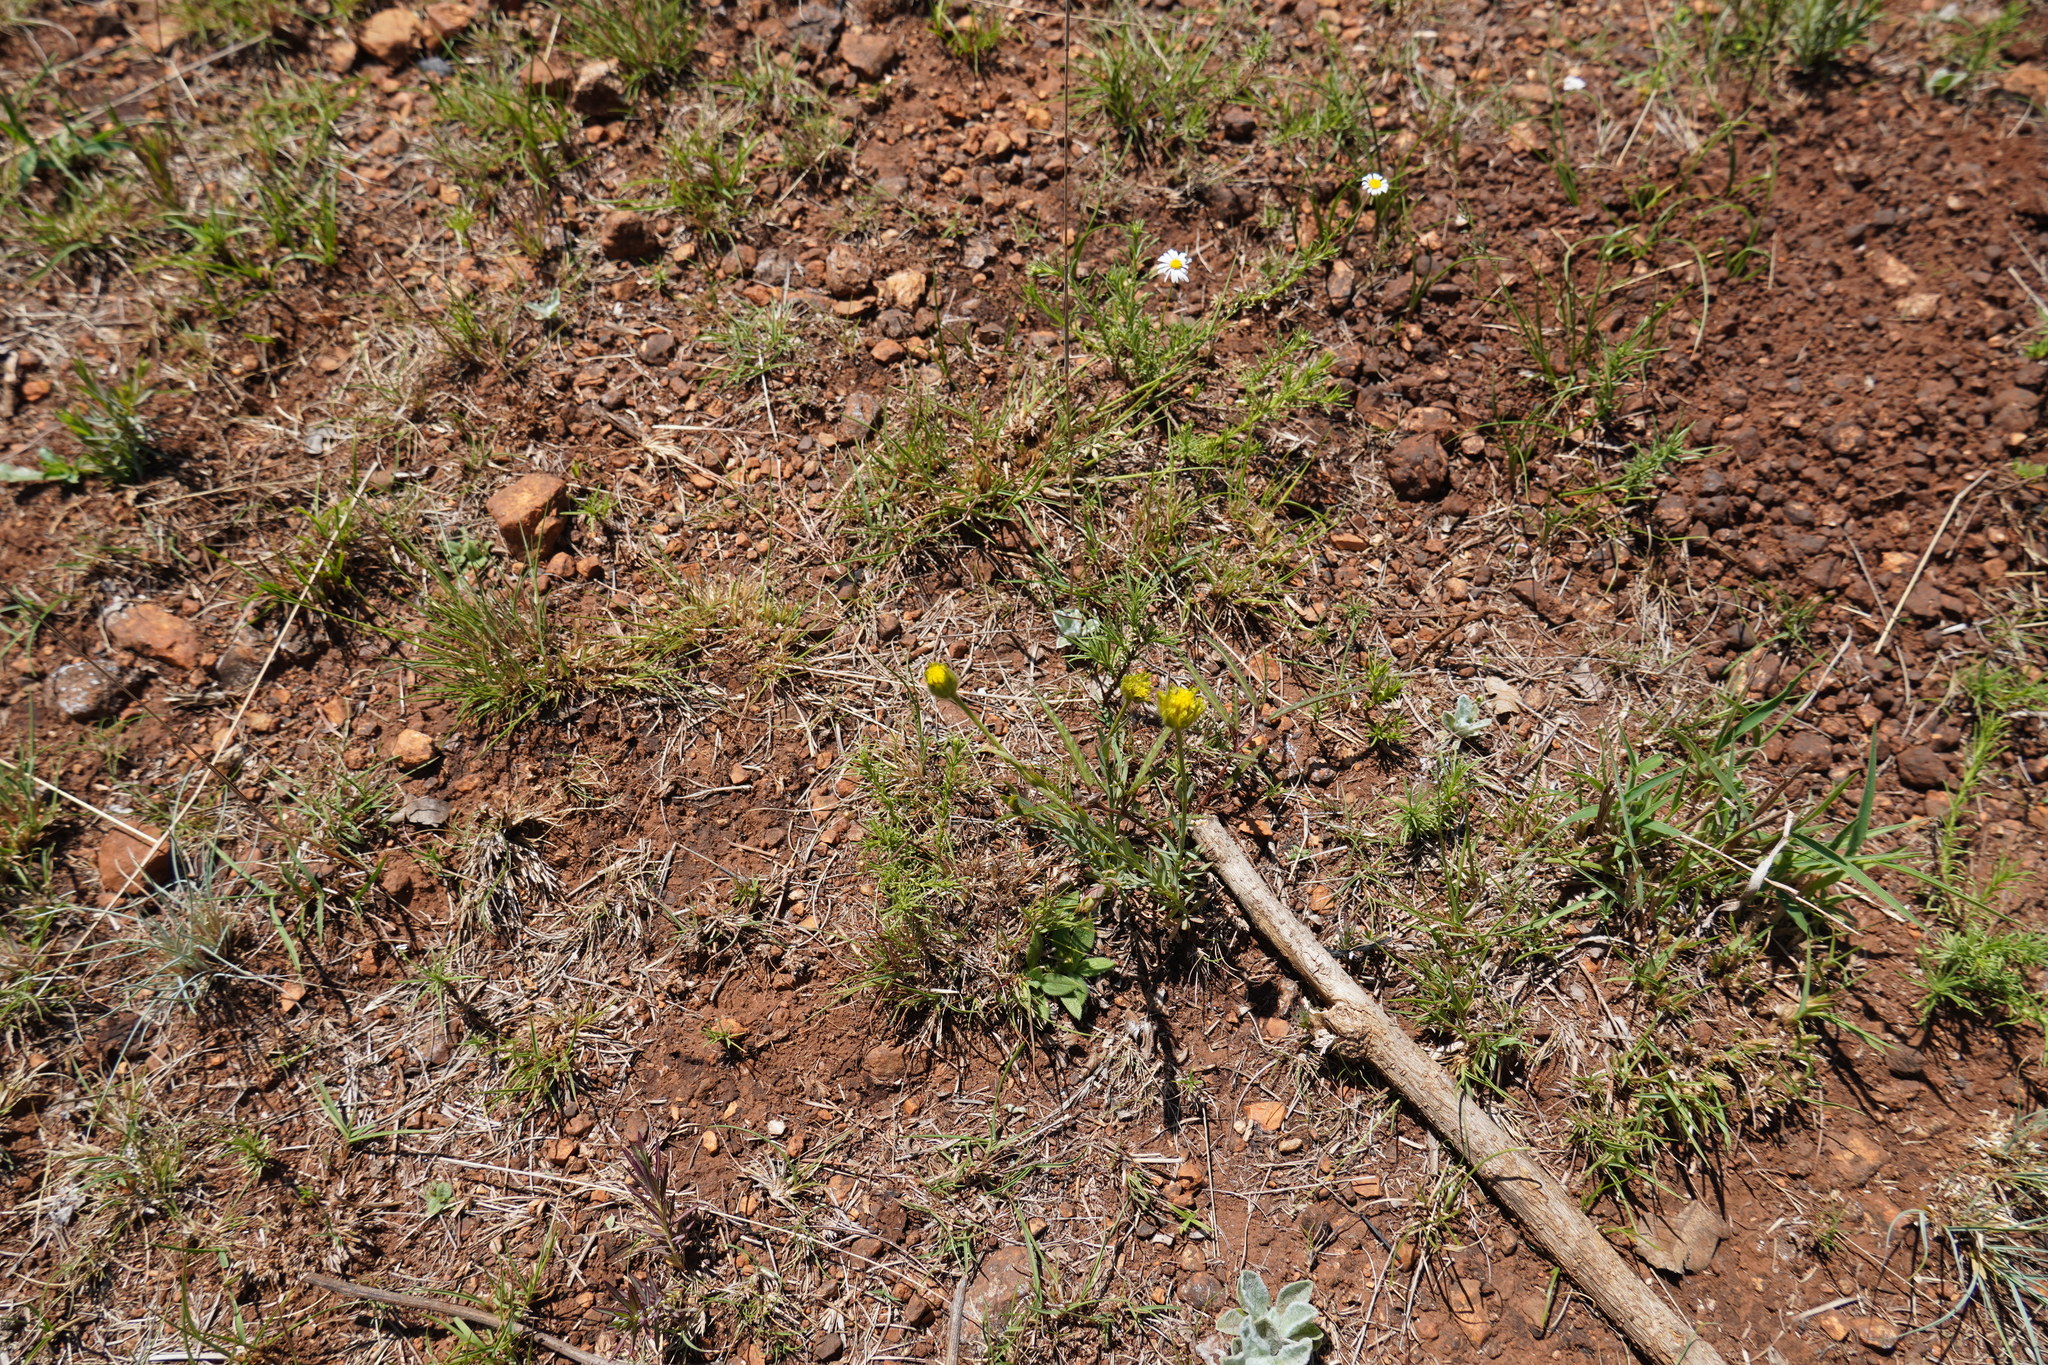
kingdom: Plantae
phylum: Tracheophyta
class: Magnoliopsida
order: Malvales
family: Thymelaeaceae
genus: Gnidia
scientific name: Gnidia sericocephala
